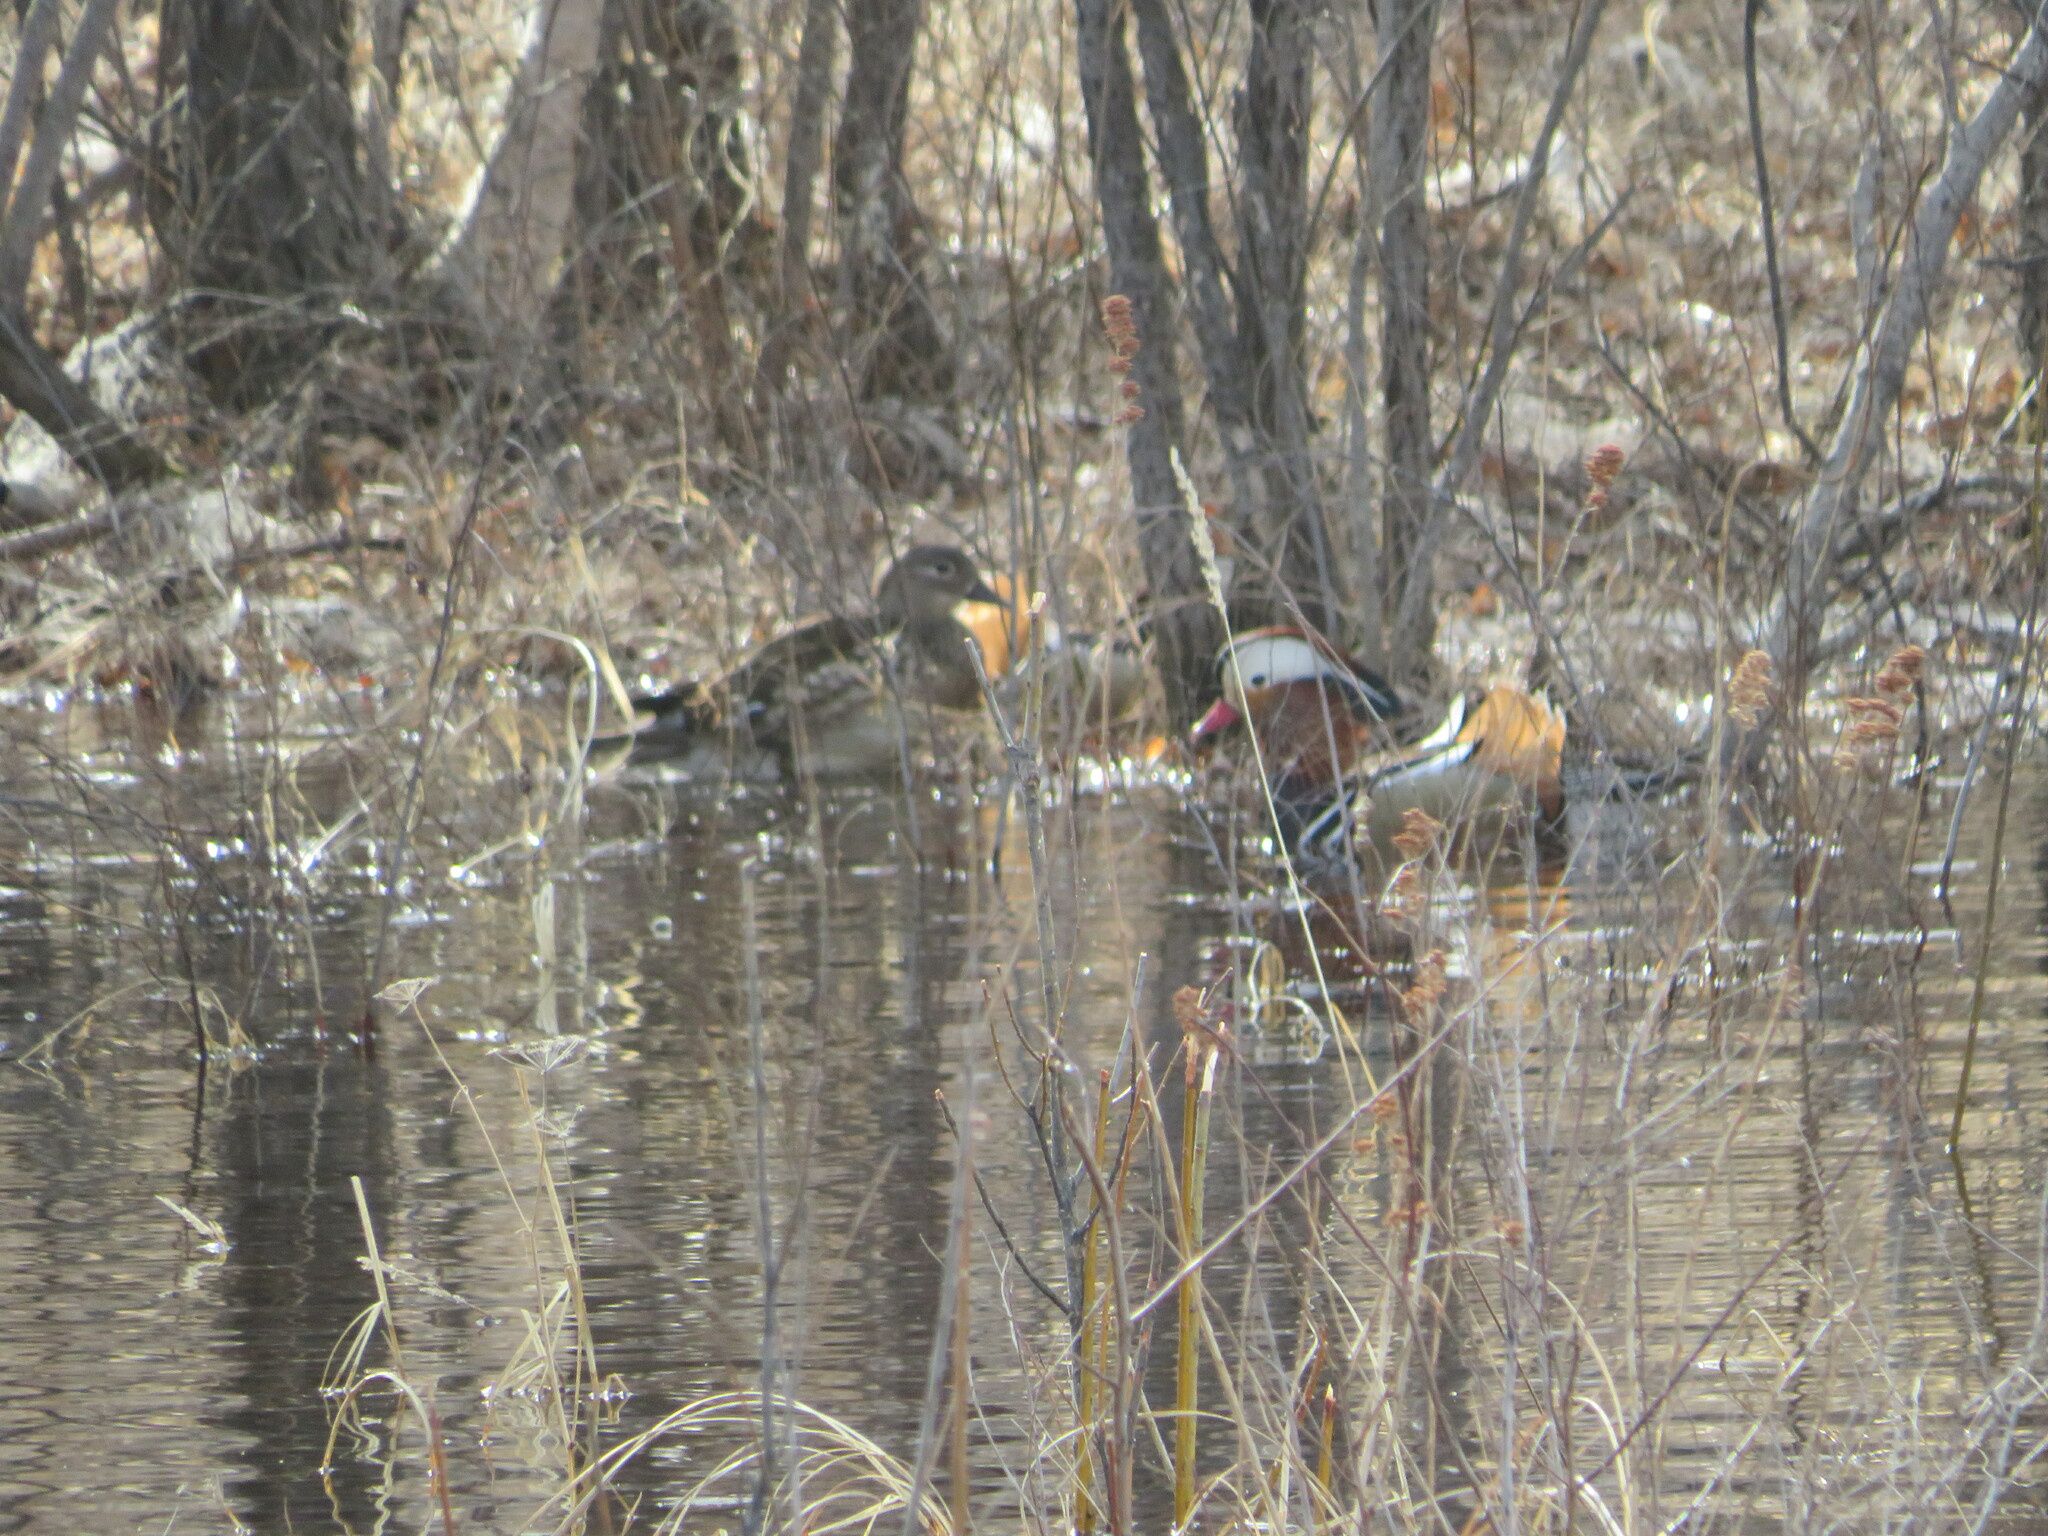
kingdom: Animalia
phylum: Chordata
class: Aves
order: Anseriformes
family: Anatidae
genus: Aix
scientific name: Aix galericulata
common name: Mandarin duck
